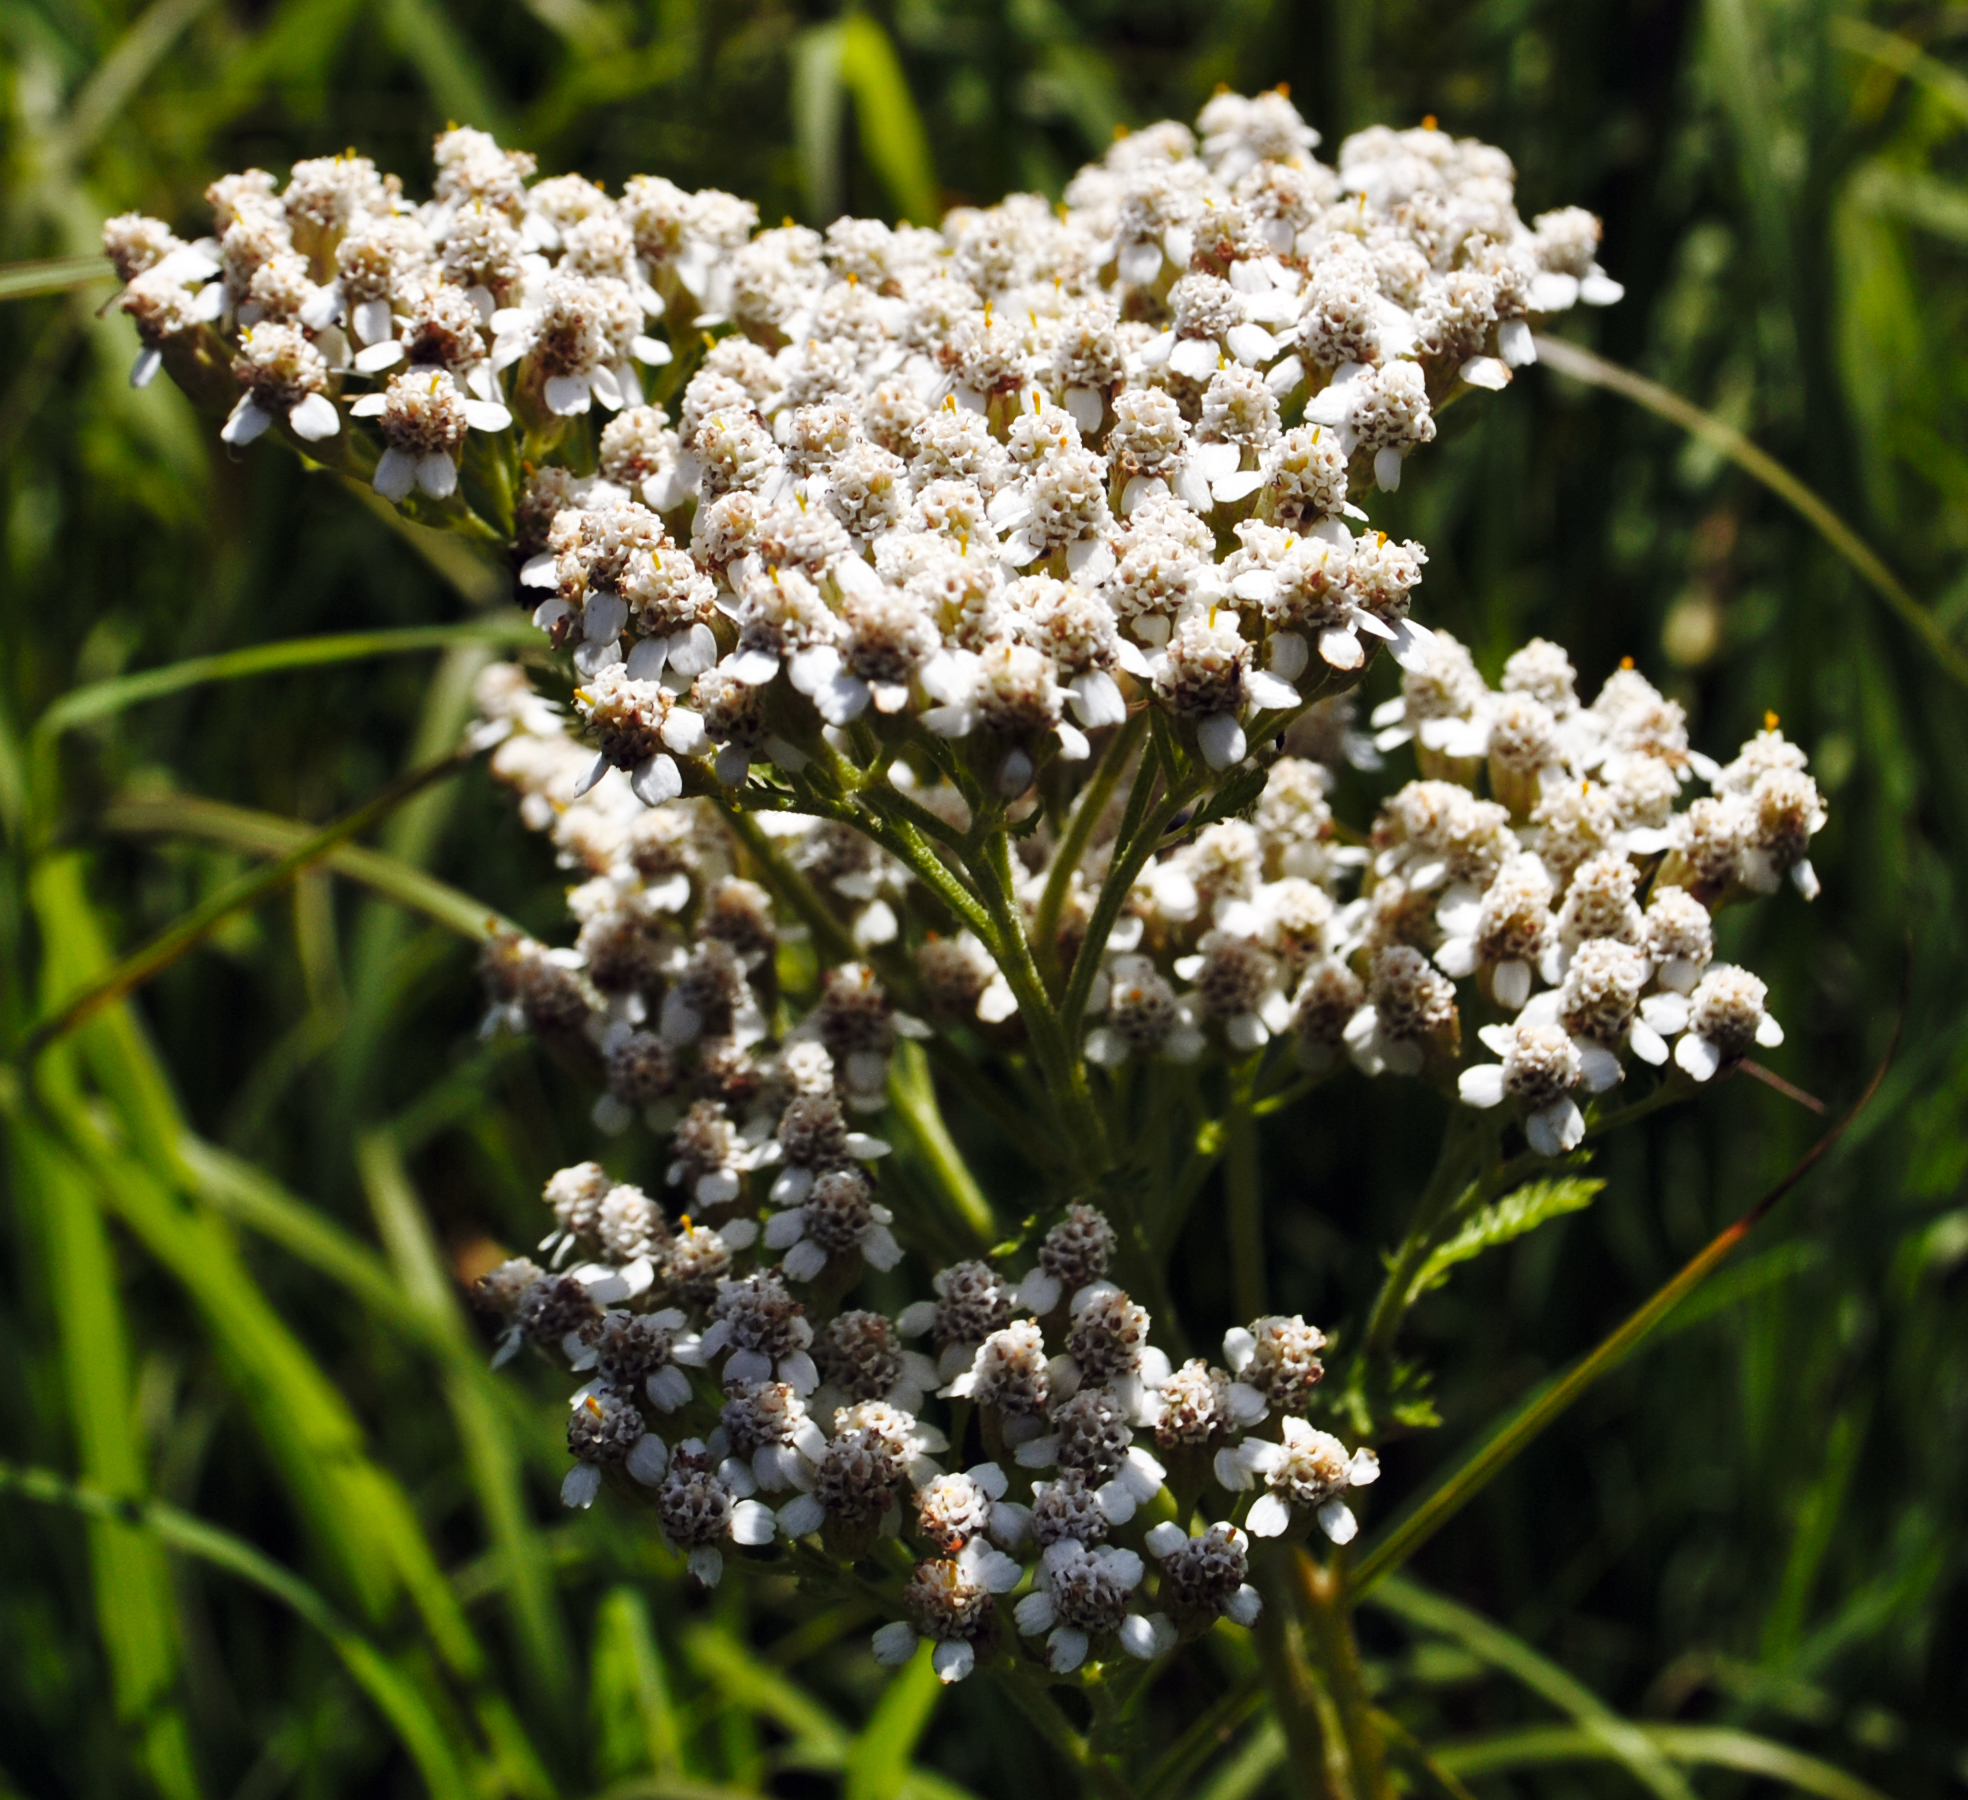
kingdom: Plantae
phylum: Tracheophyta
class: Magnoliopsida
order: Asterales
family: Asteraceae
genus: Achillea
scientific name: Achillea millefolium
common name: Yarrow
